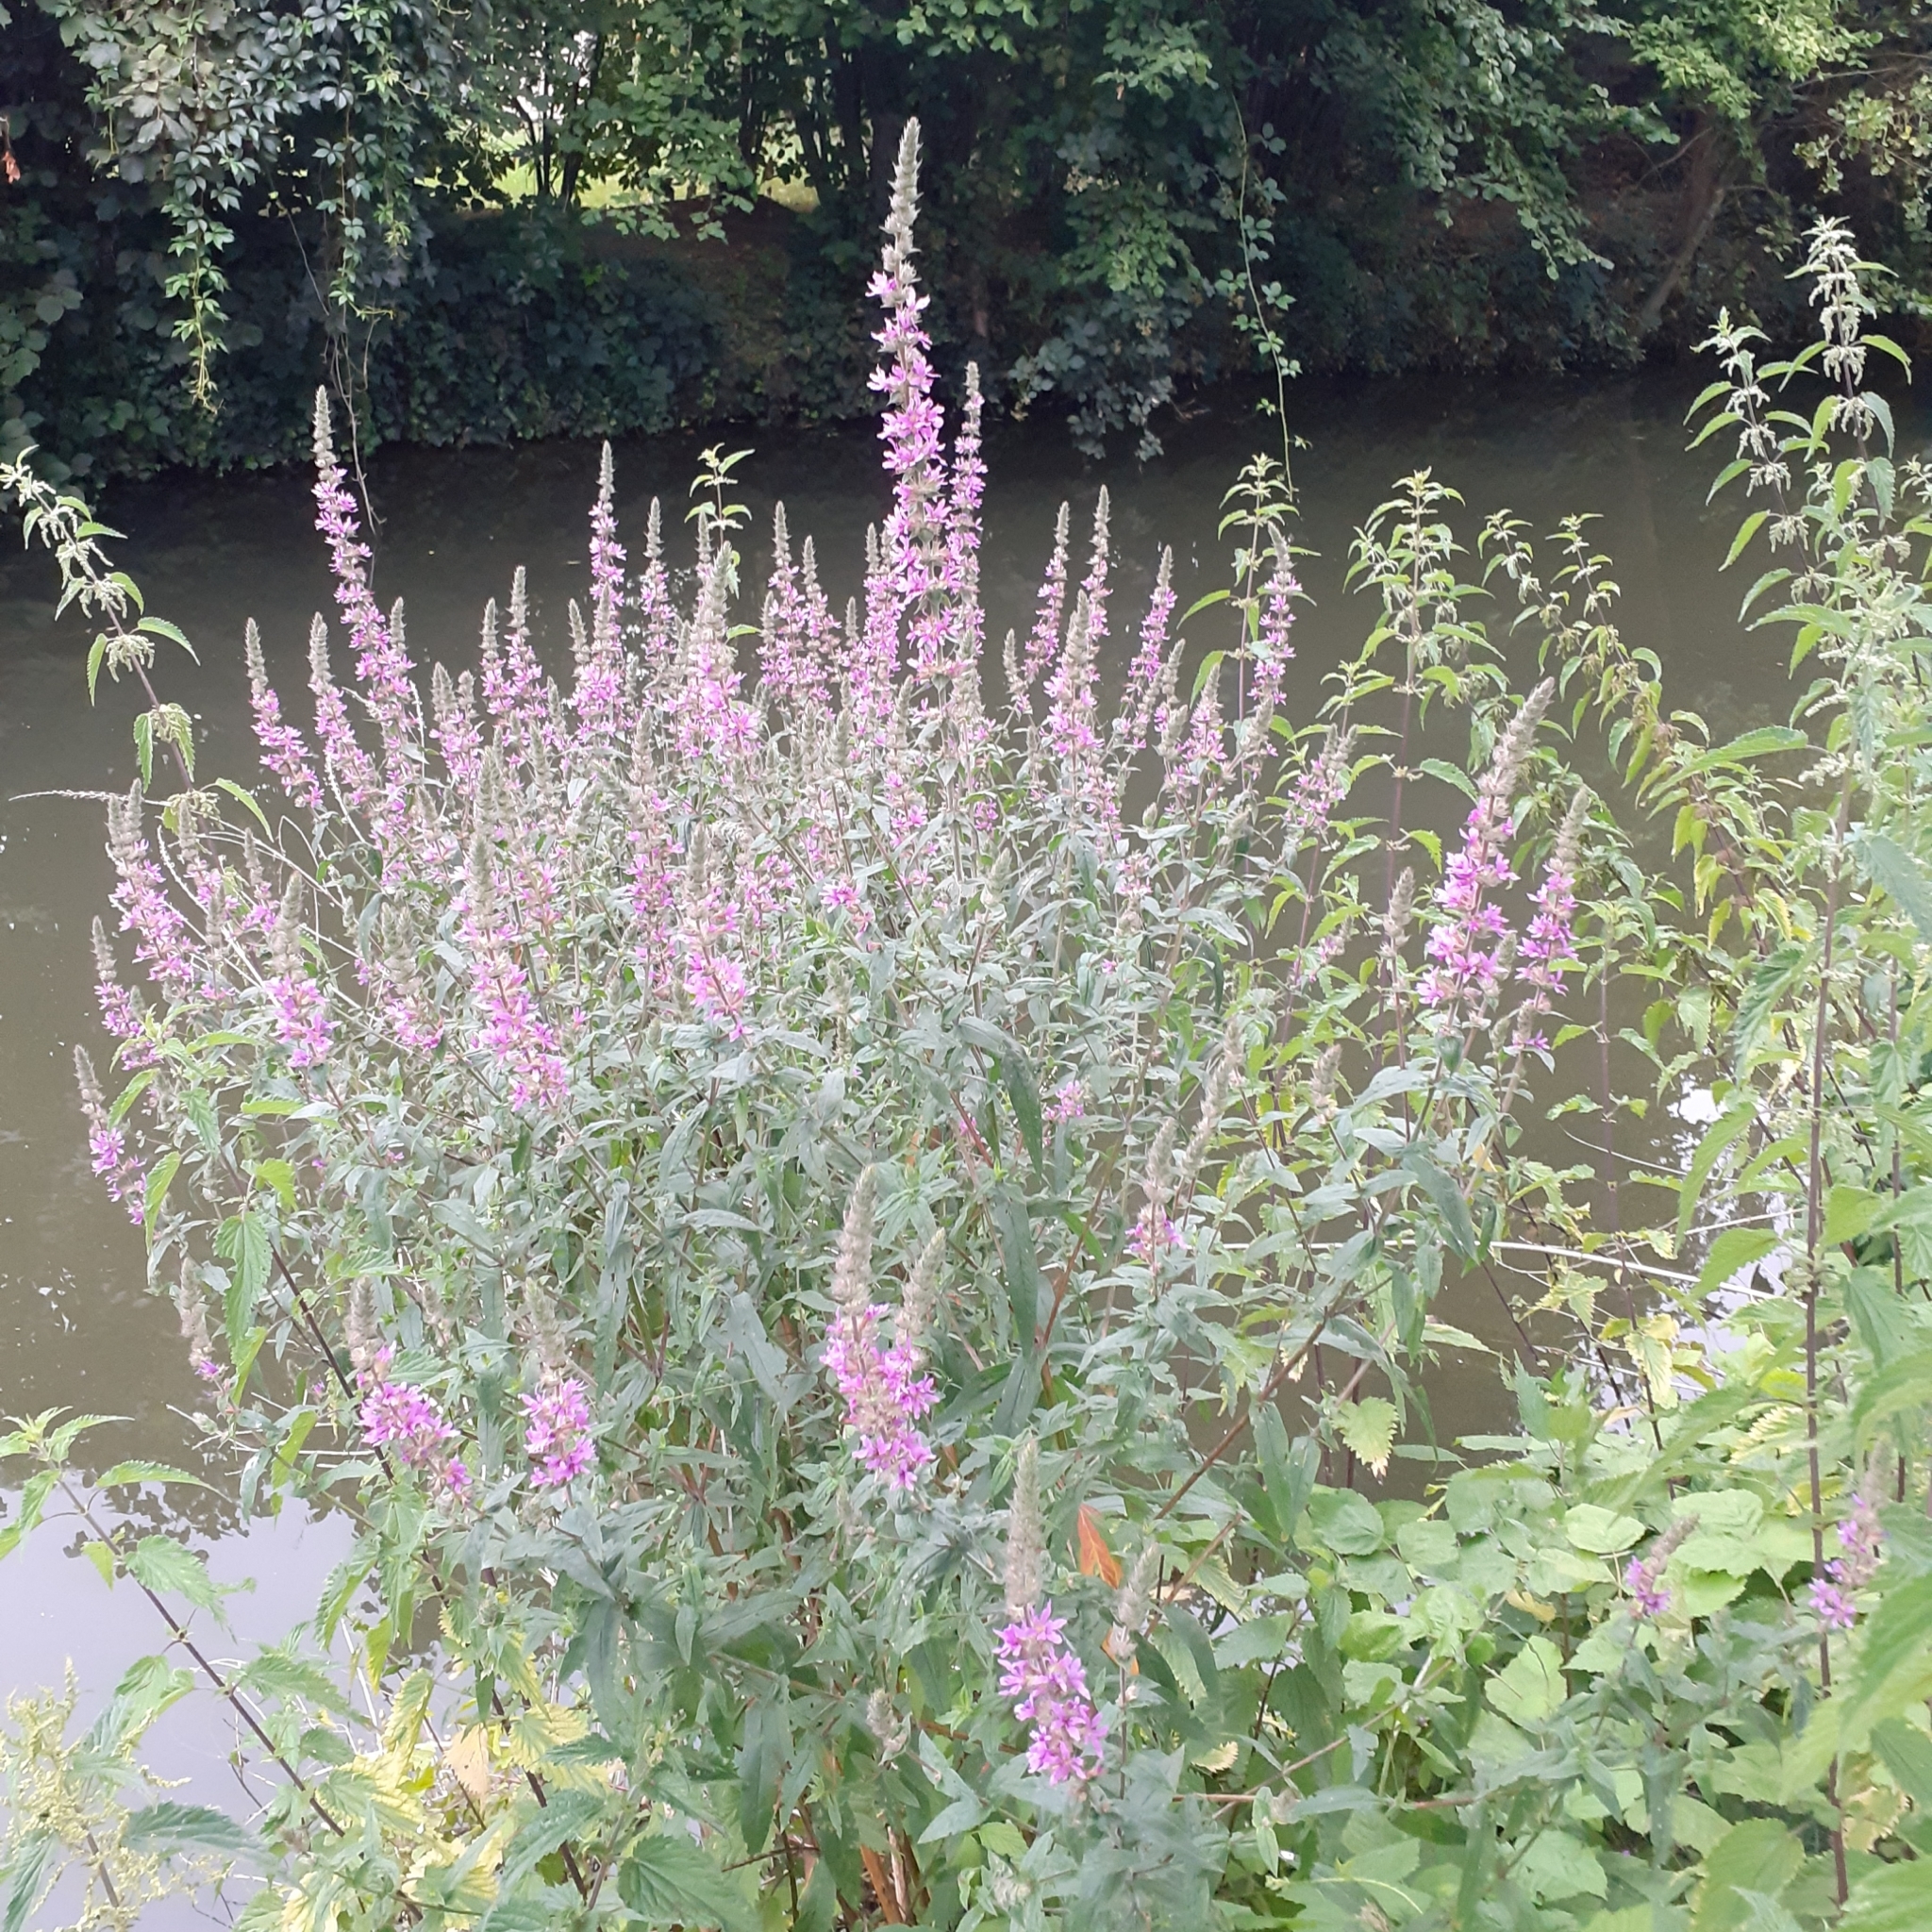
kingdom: Plantae
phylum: Tracheophyta
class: Magnoliopsida
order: Myrtales
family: Lythraceae
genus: Lythrum
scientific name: Lythrum salicaria
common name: Purple loosestrife
